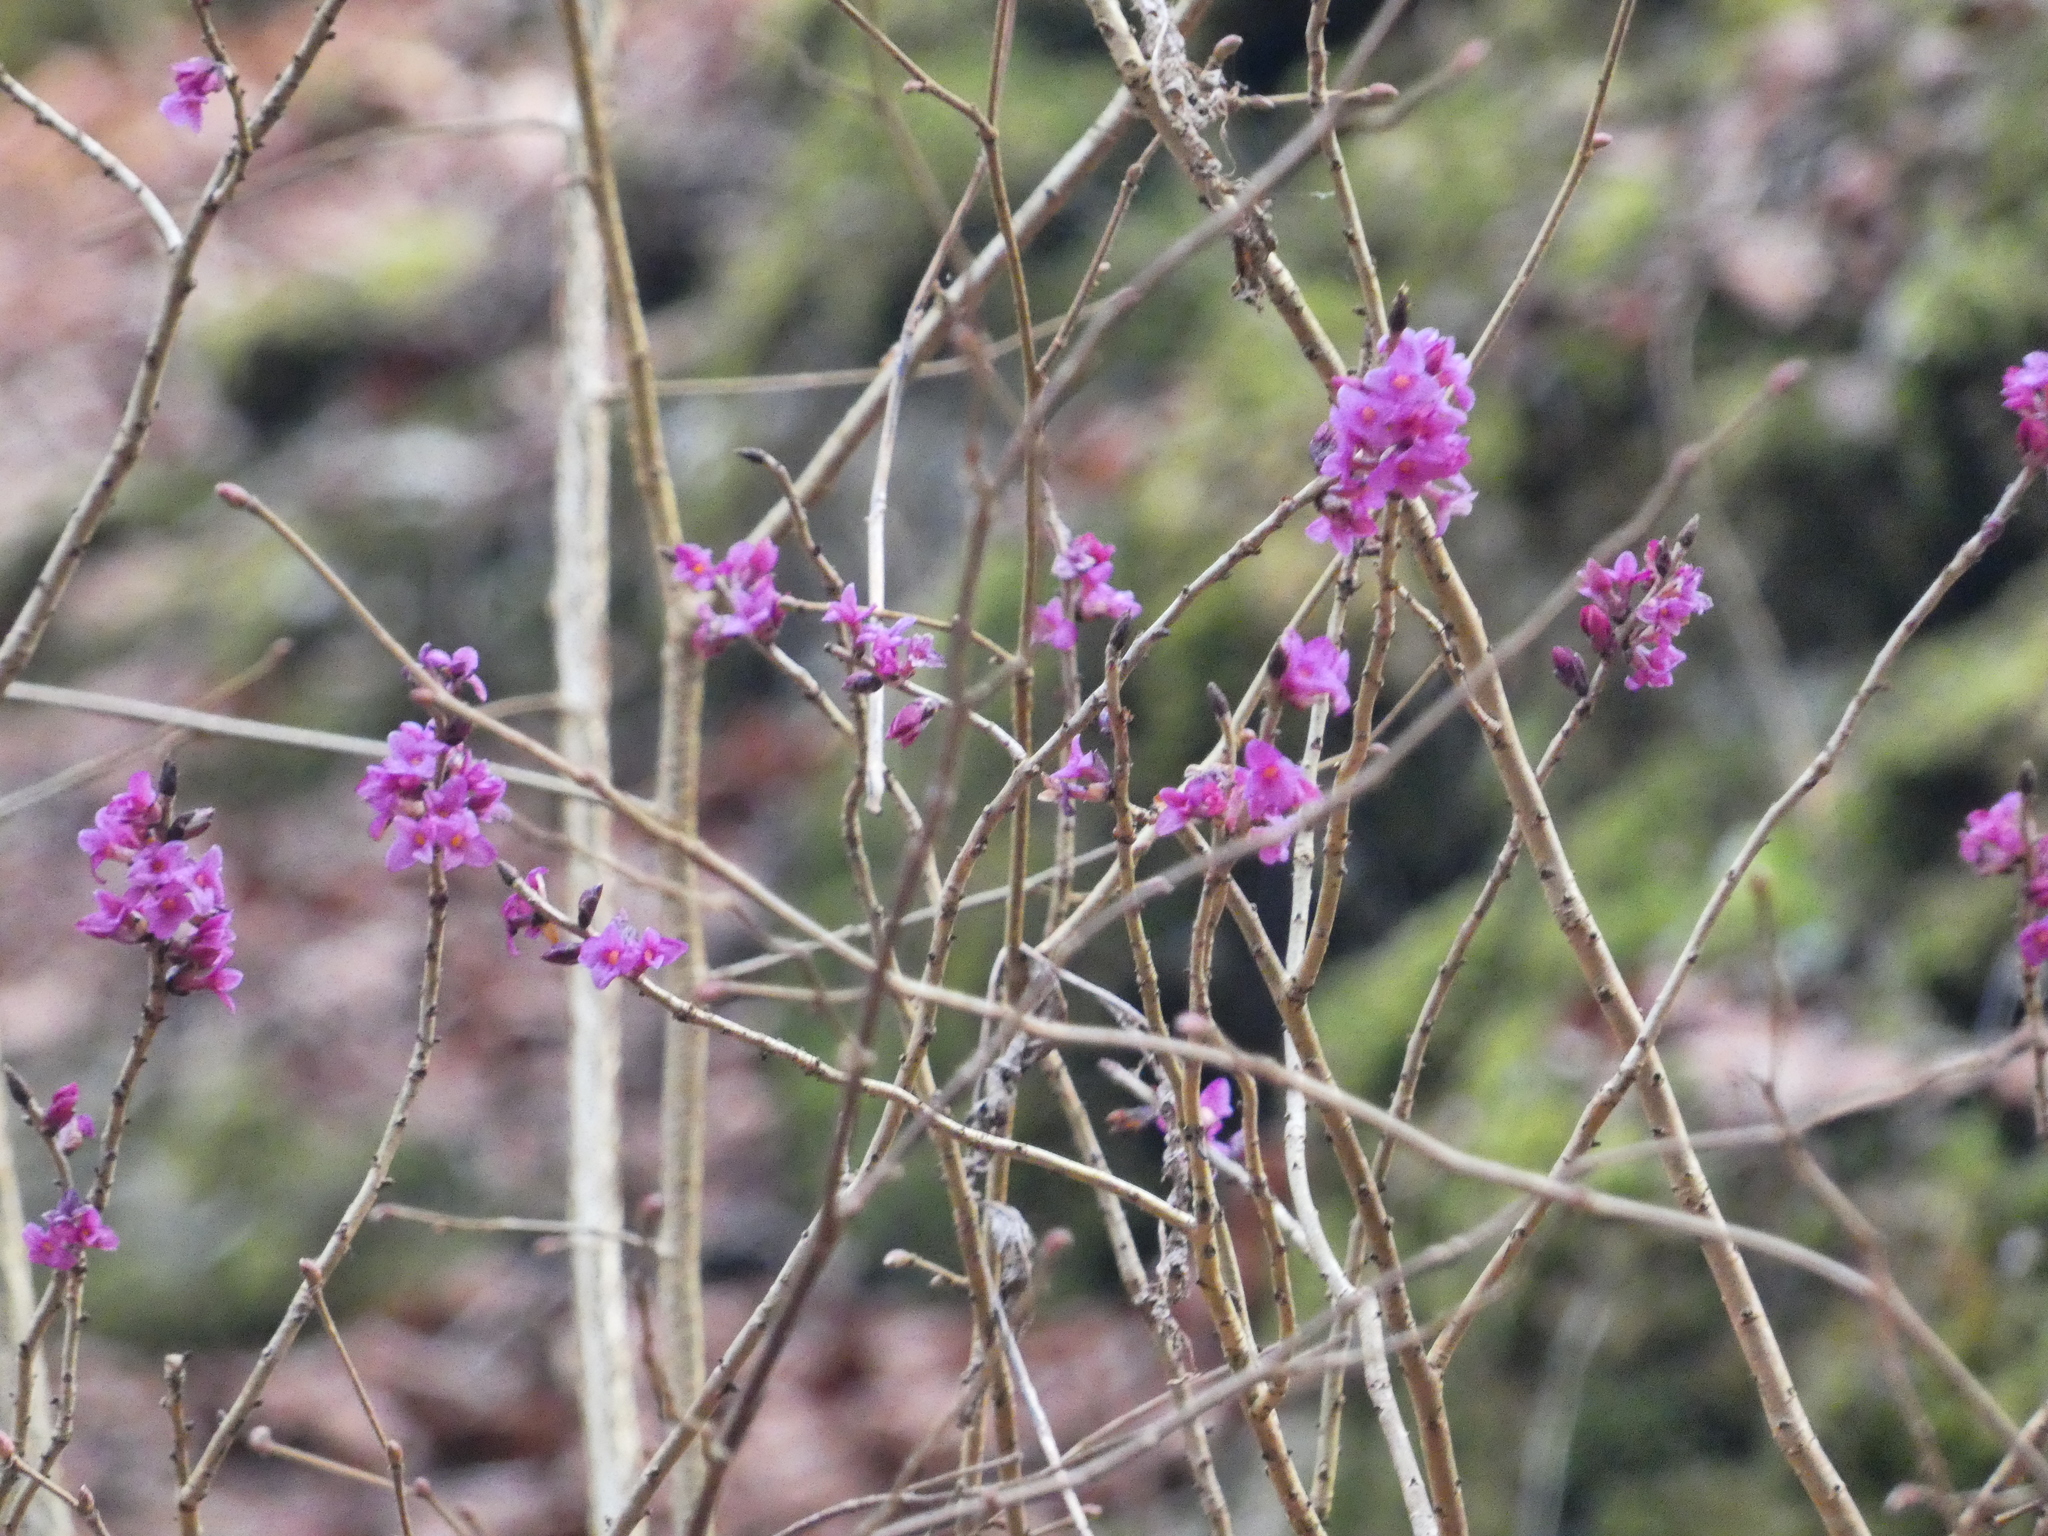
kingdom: Plantae
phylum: Tracheophyta
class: Magnoliopsida
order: Malvales
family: Thymelaeaceae
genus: Daphne
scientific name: Daphne mezereum
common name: Mezereon
